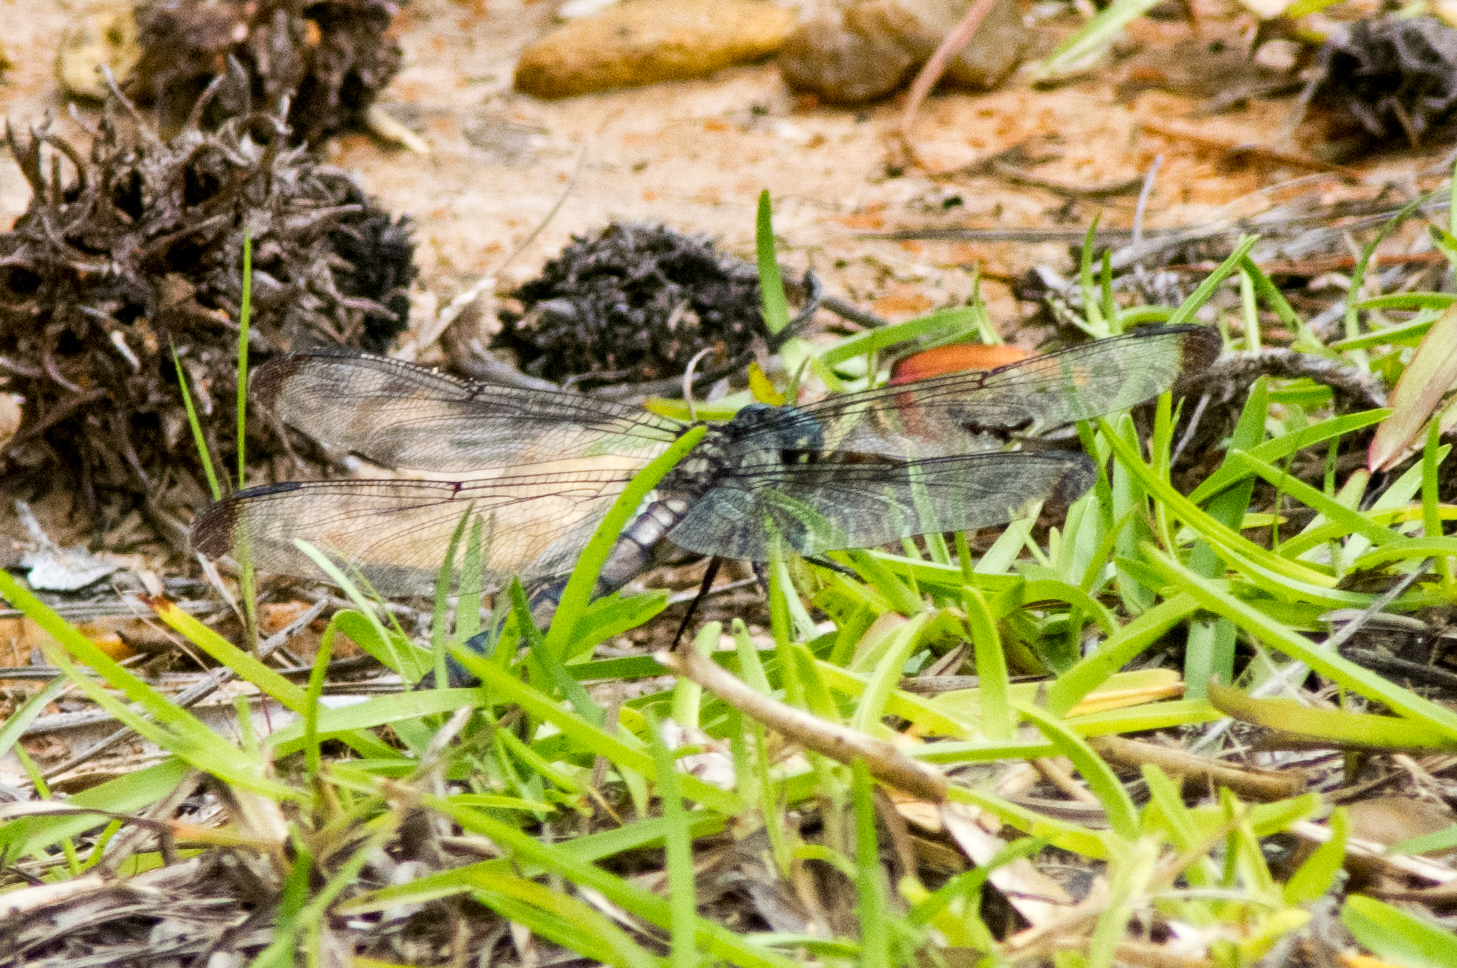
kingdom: Animalia
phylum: Arthropoda
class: Insecta
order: Odonata
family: Libellulidae
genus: Libellula
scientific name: Libellula vibrans
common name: Great blue skimmer
